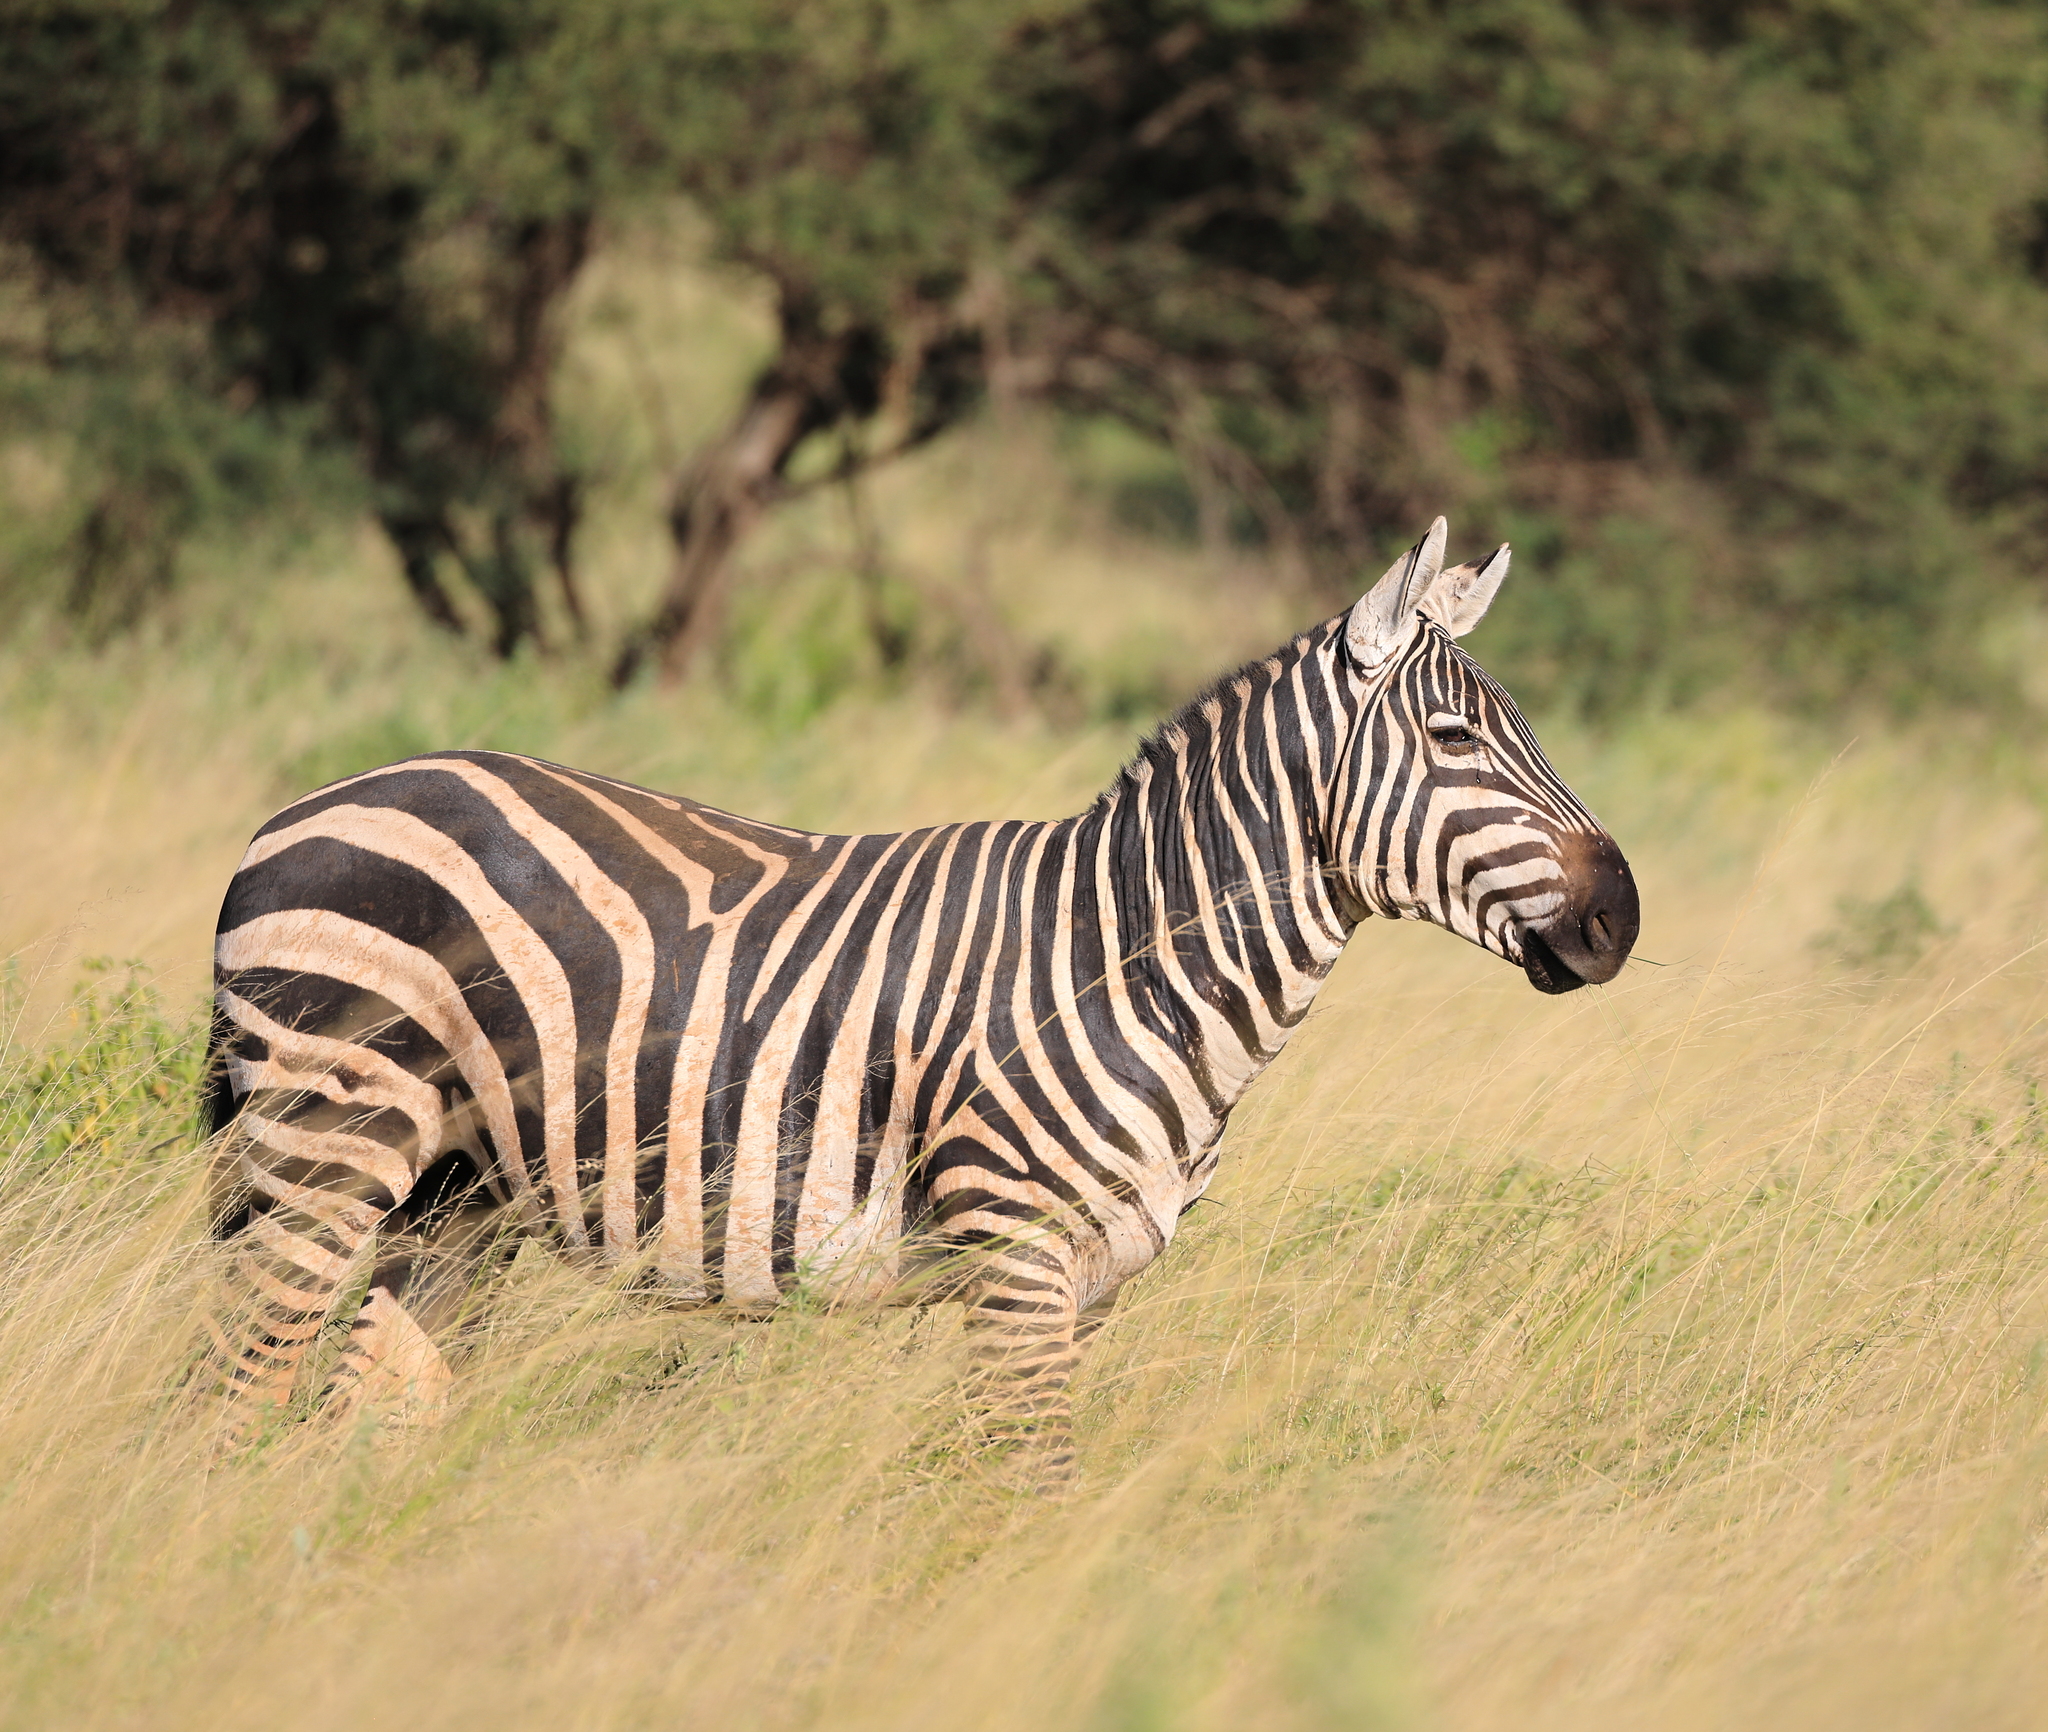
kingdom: Animalia
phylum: Chordata
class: Mammalia
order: Perissodactyla
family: Equidae
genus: Equus
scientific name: Equus quagga
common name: Plains zebra
